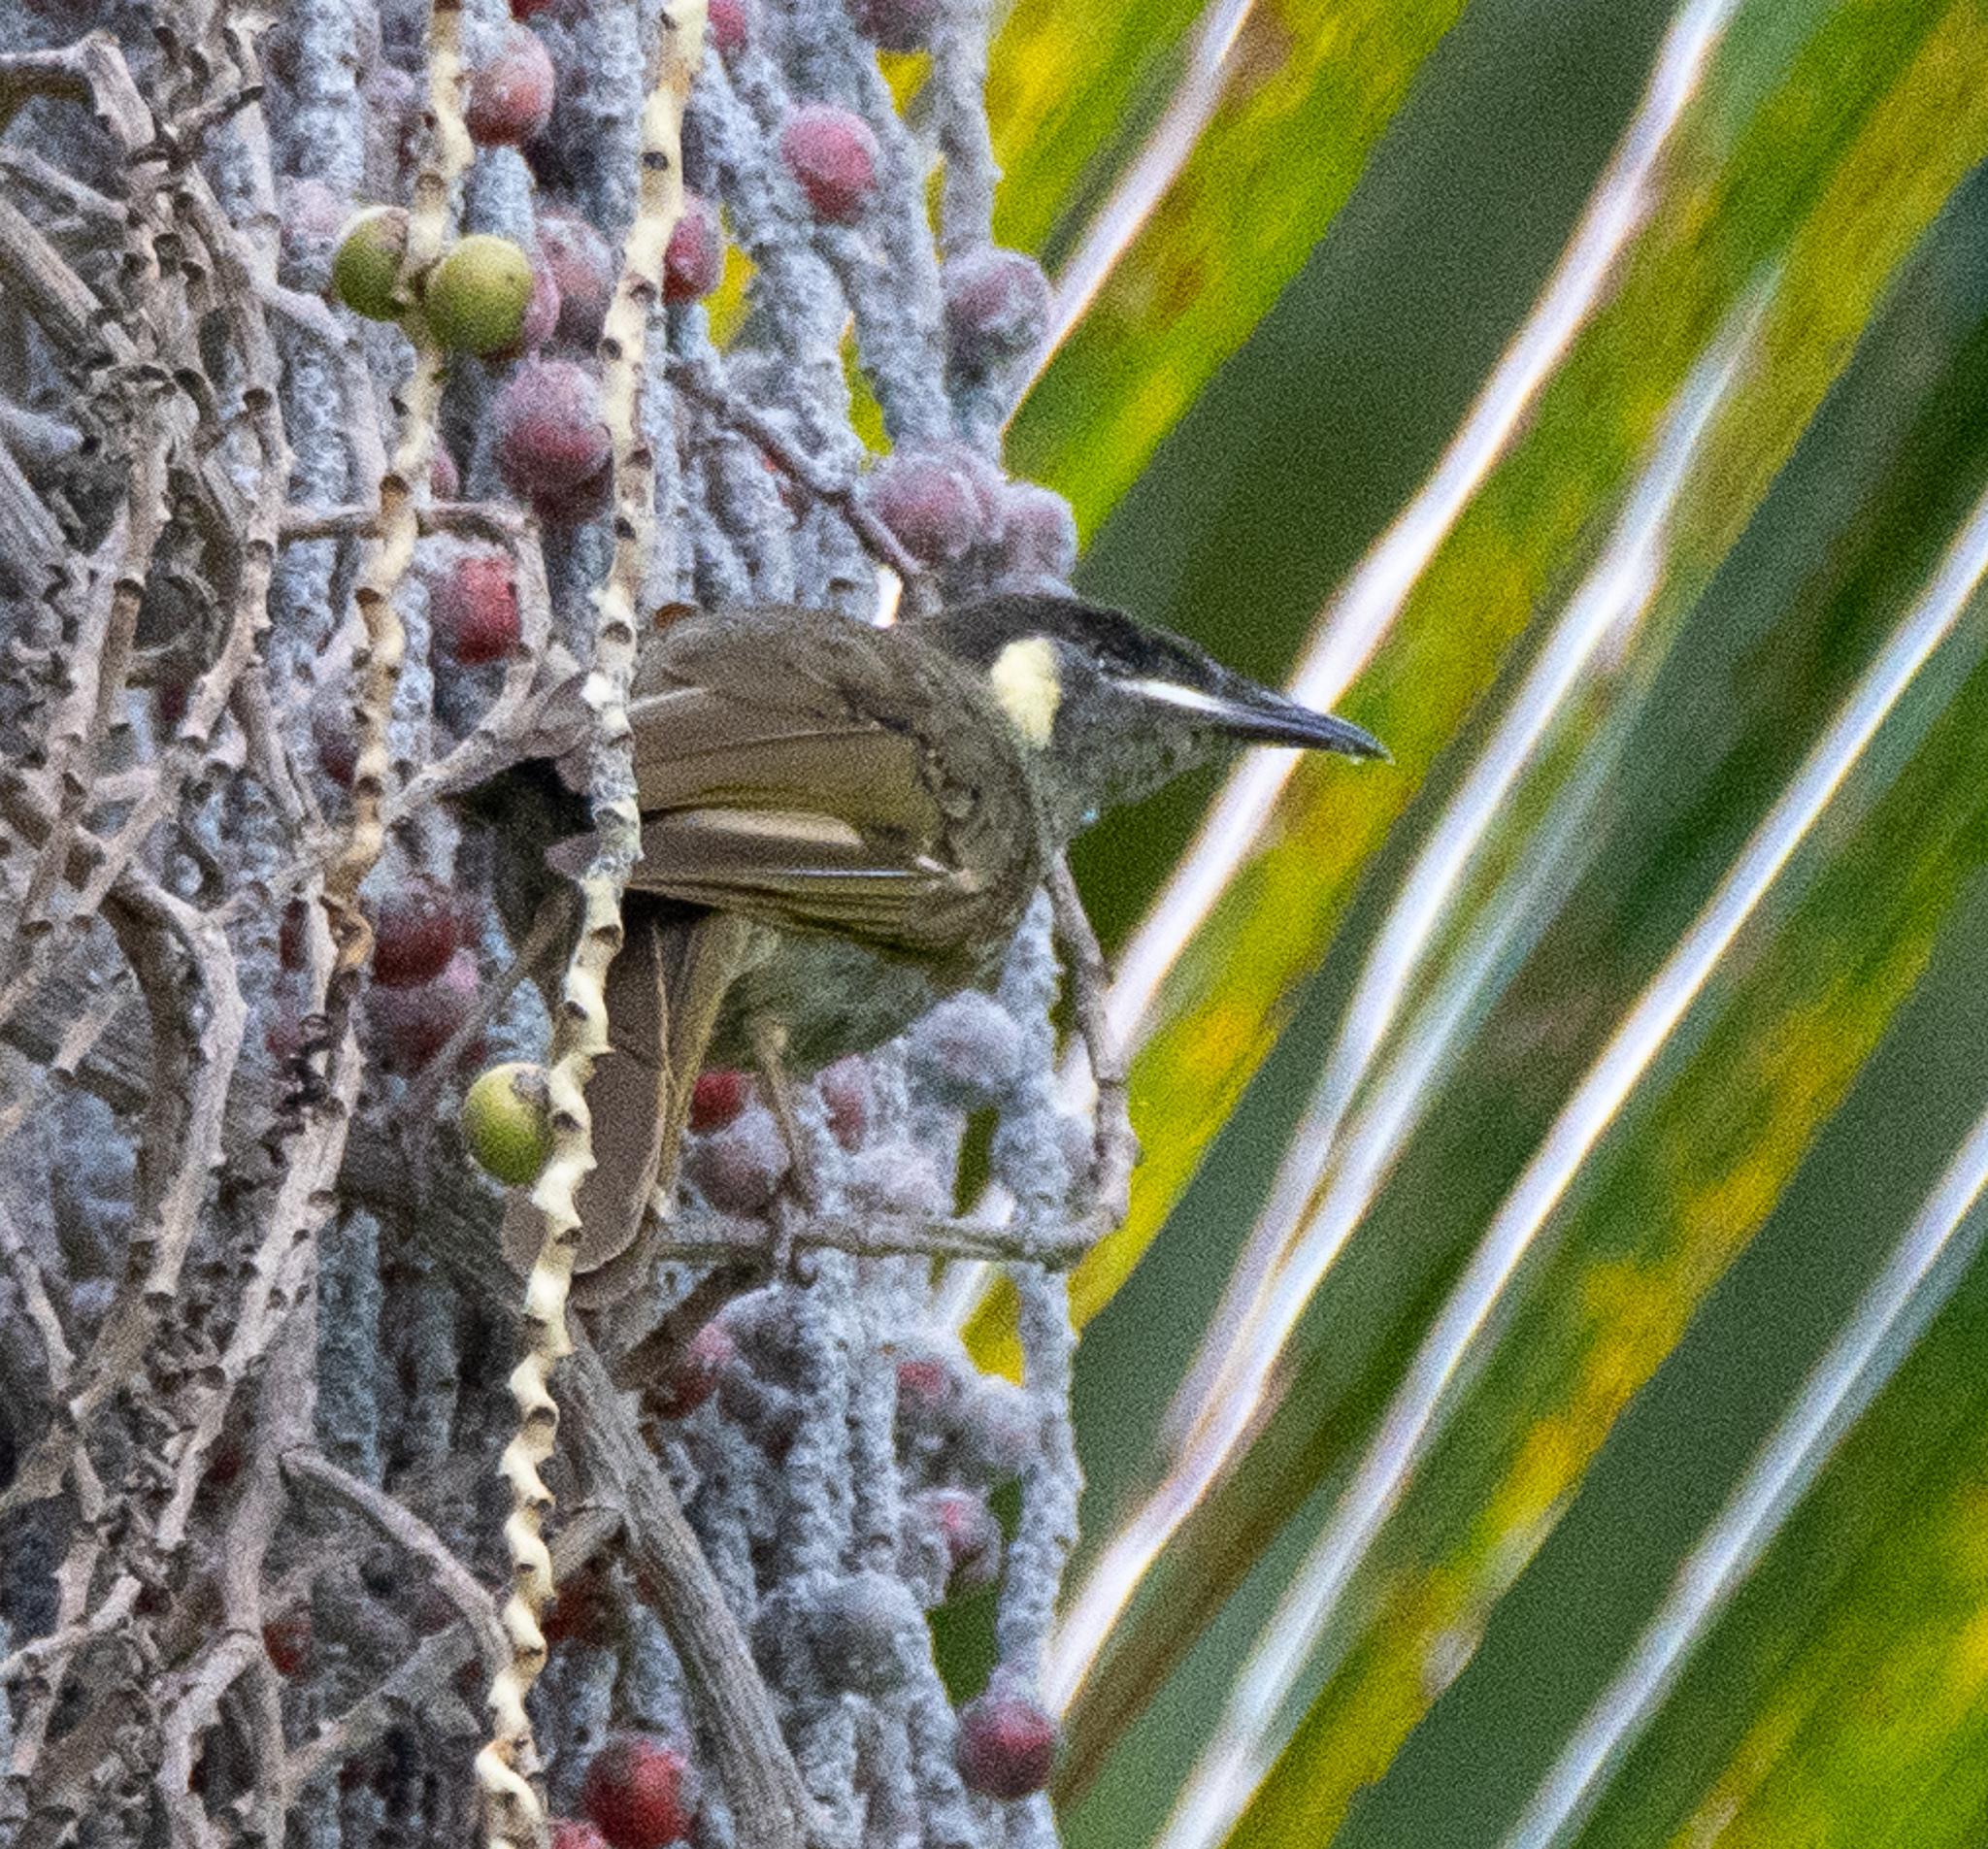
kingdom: Animalia
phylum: Chordata
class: Aves
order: Passeriformes
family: Meliphagidae
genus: Meliphaga
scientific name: Meliphaga lewinii
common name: Lewin's honeyeater
